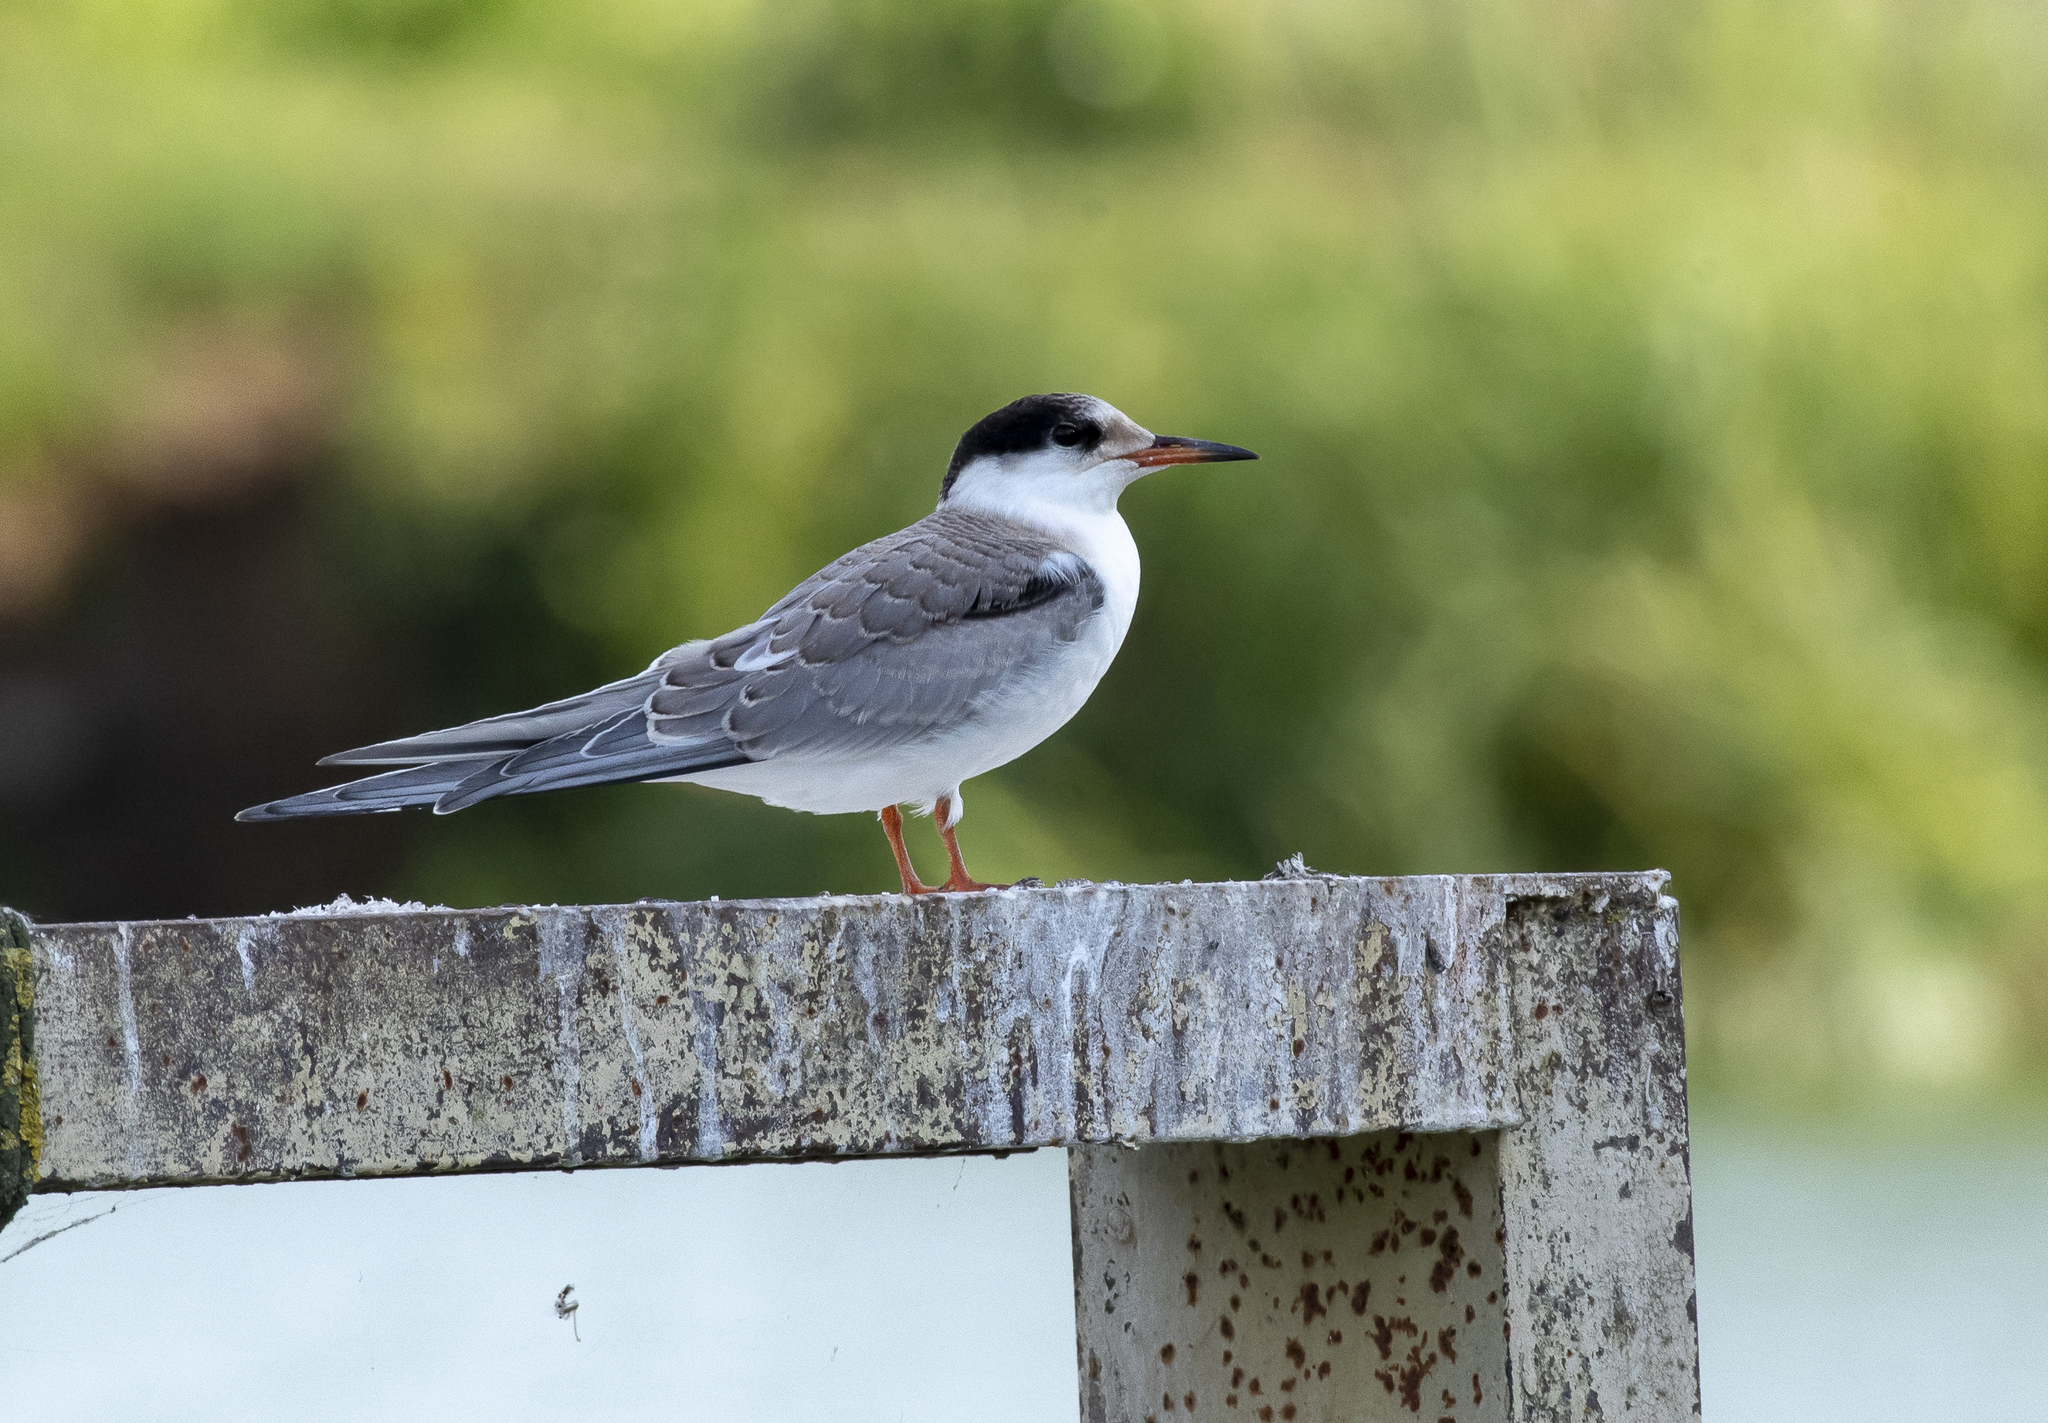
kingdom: Animalia
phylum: Chordata
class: Aves
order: Charadriiformes
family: Laridae
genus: Sterna
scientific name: Sterna hirundo
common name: Common tern
